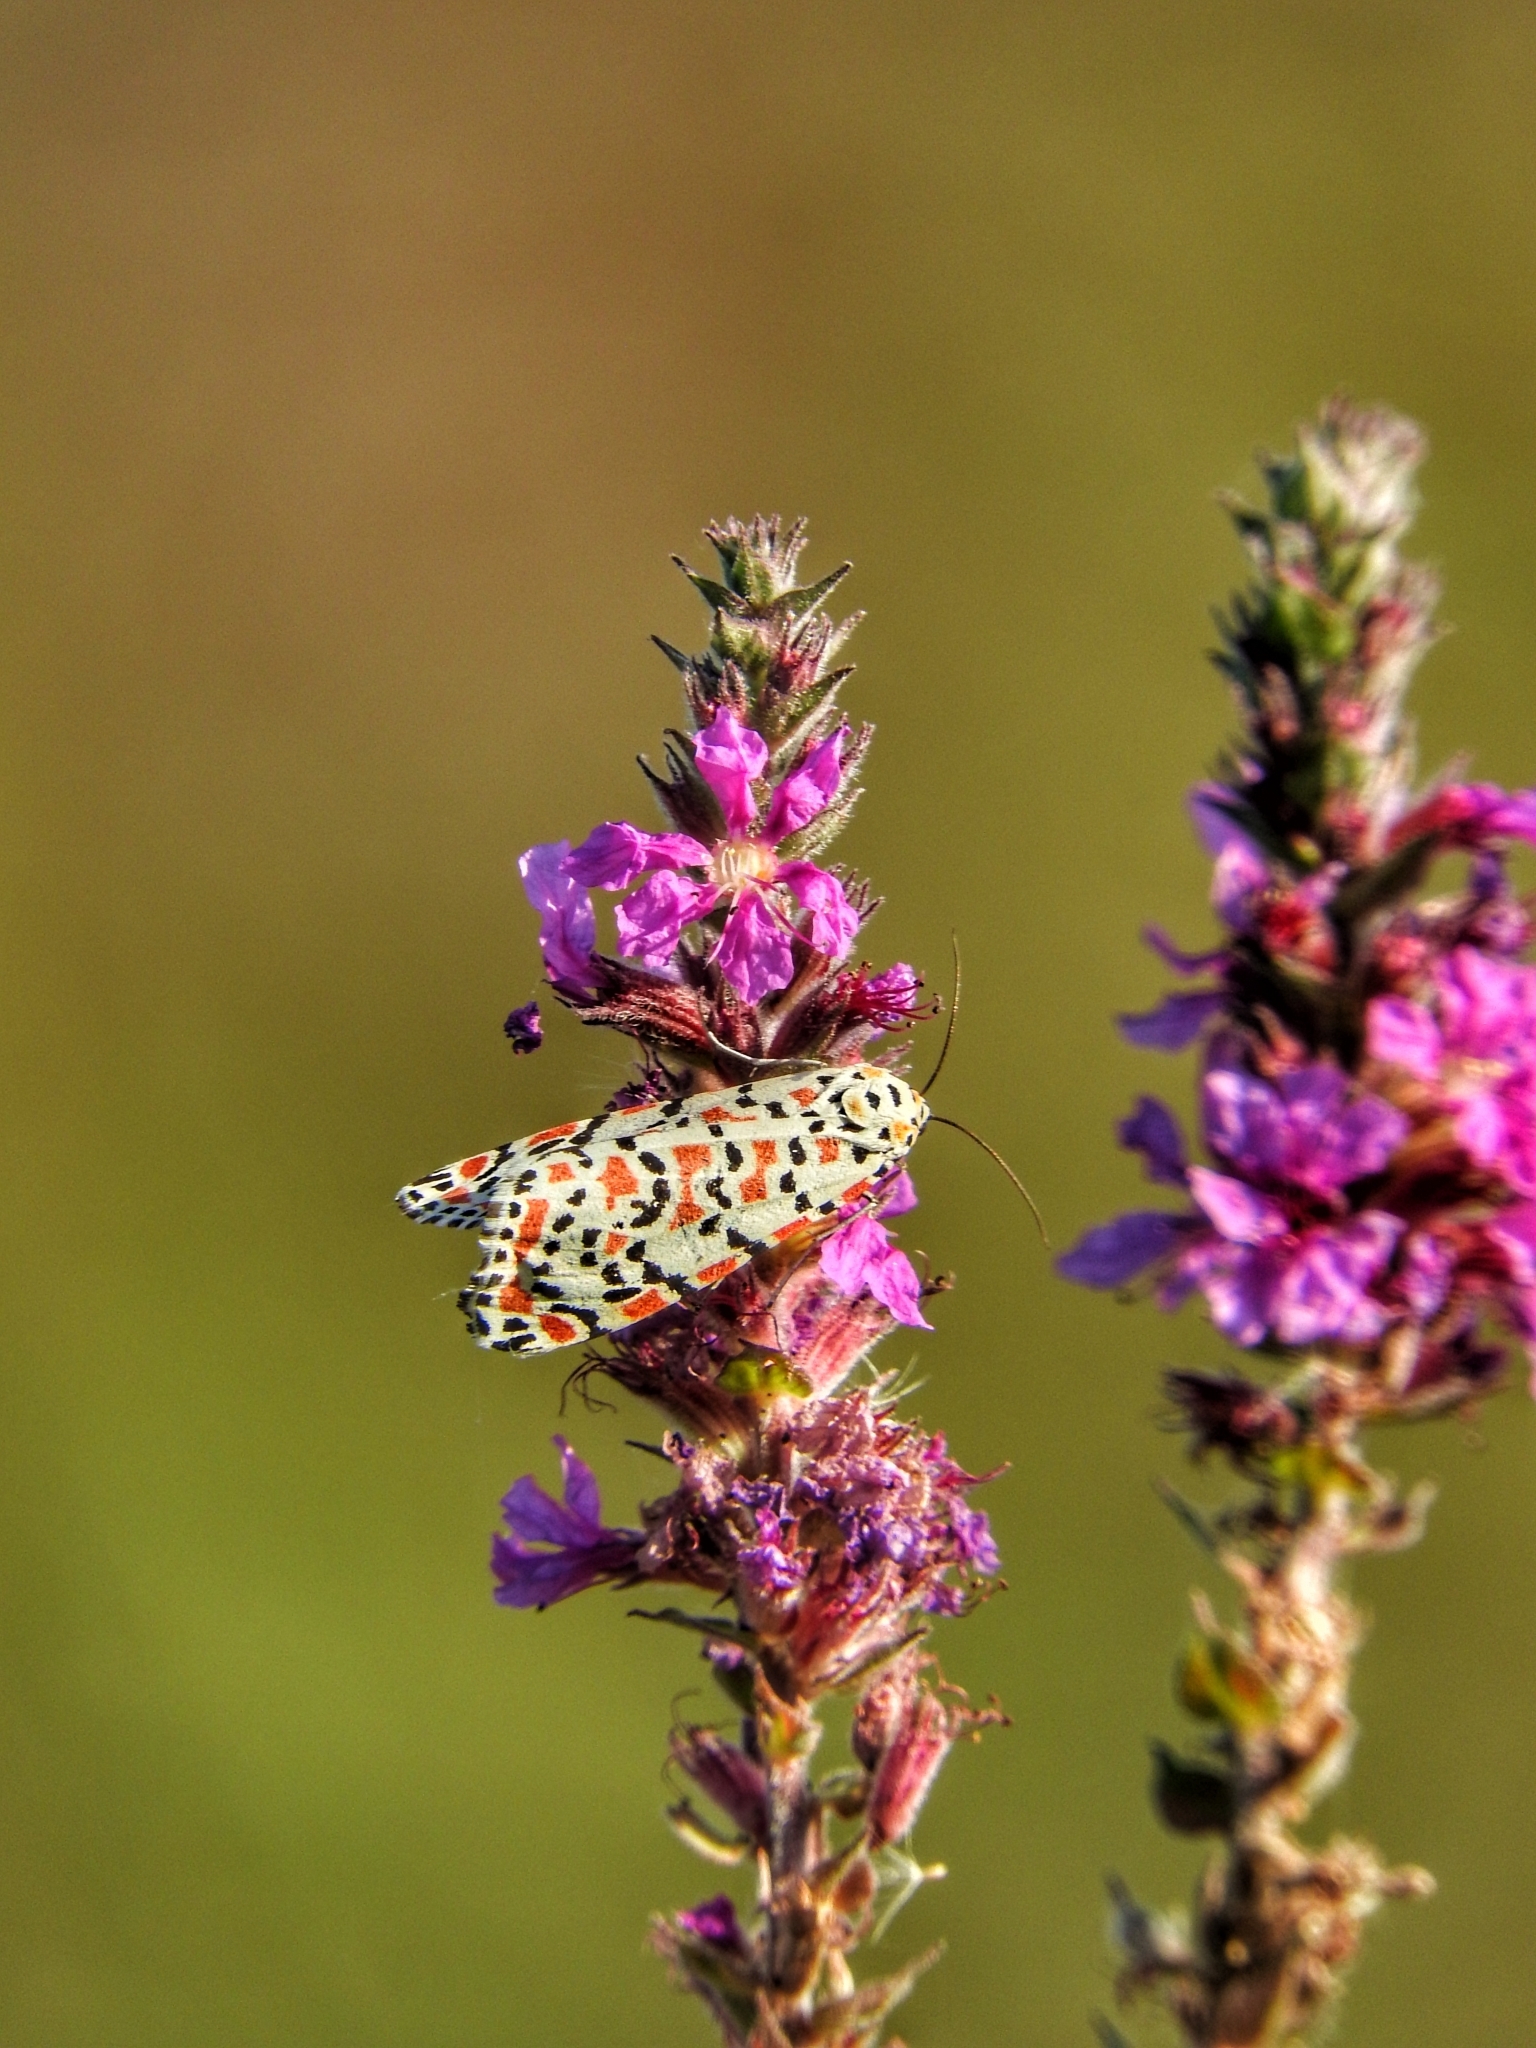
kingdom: Animalia
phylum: Arthropoda
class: Insecta
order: Lepidoptera
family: Erebidae
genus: Utetheisa
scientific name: Utetheisa pulchella
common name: Crimson speckled
